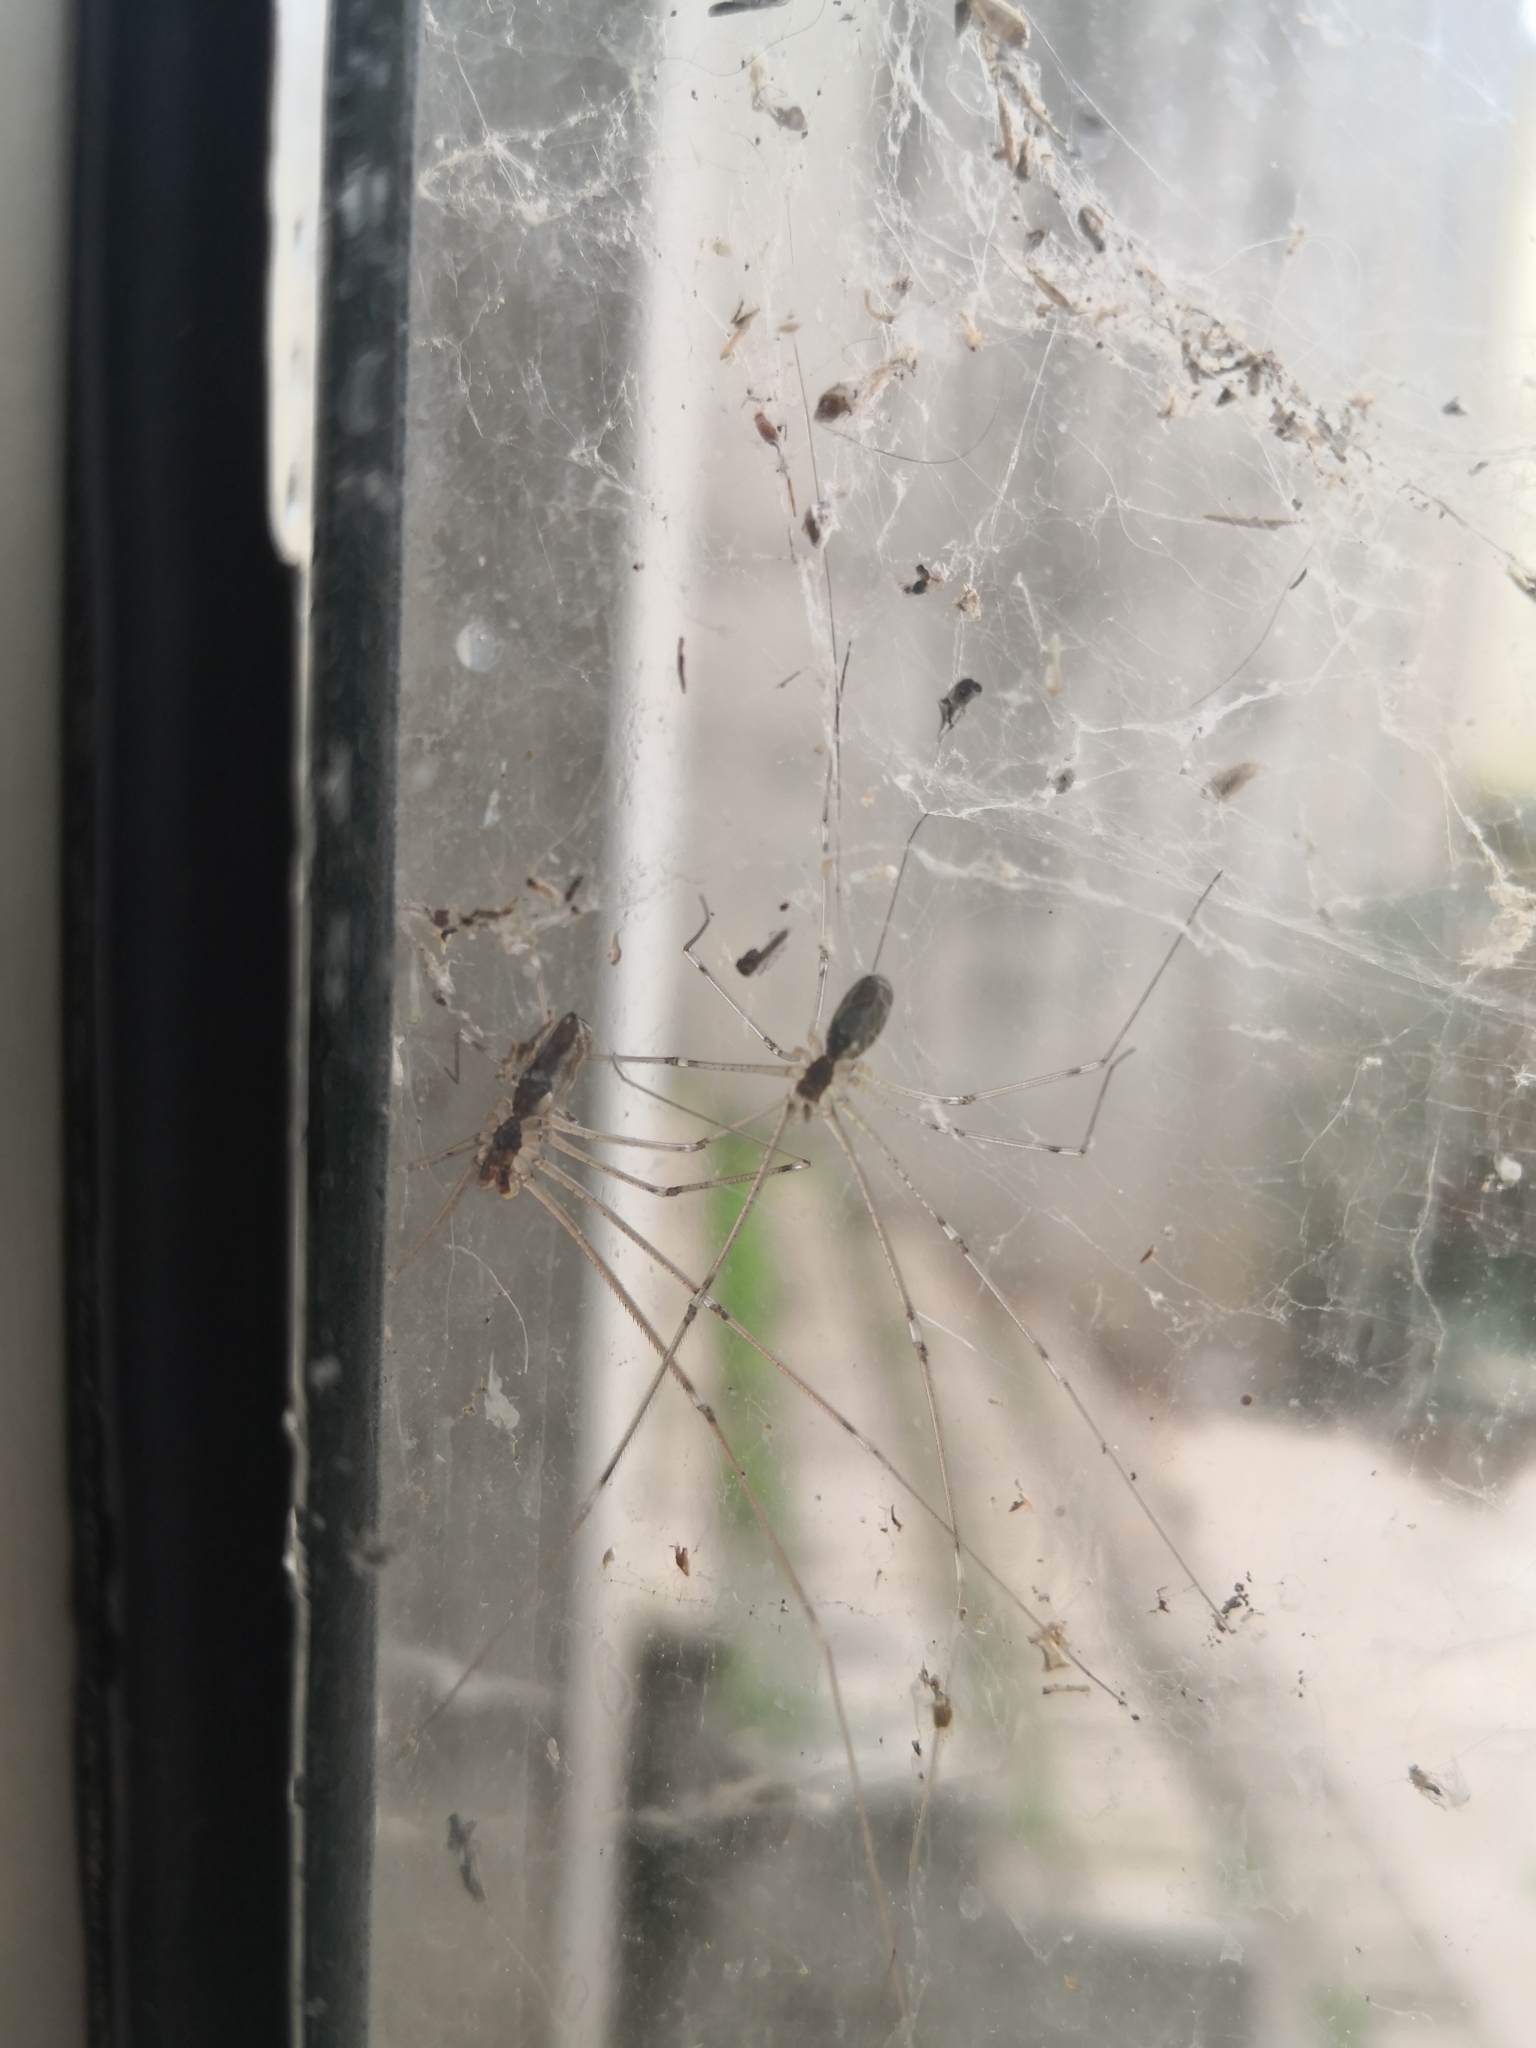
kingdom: Animalia
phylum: Arthropoda
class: Arachnida
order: Araneae
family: Pholcidae
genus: Holocnemus
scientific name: Holocnemus pluchei
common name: Marbled cellar spider
